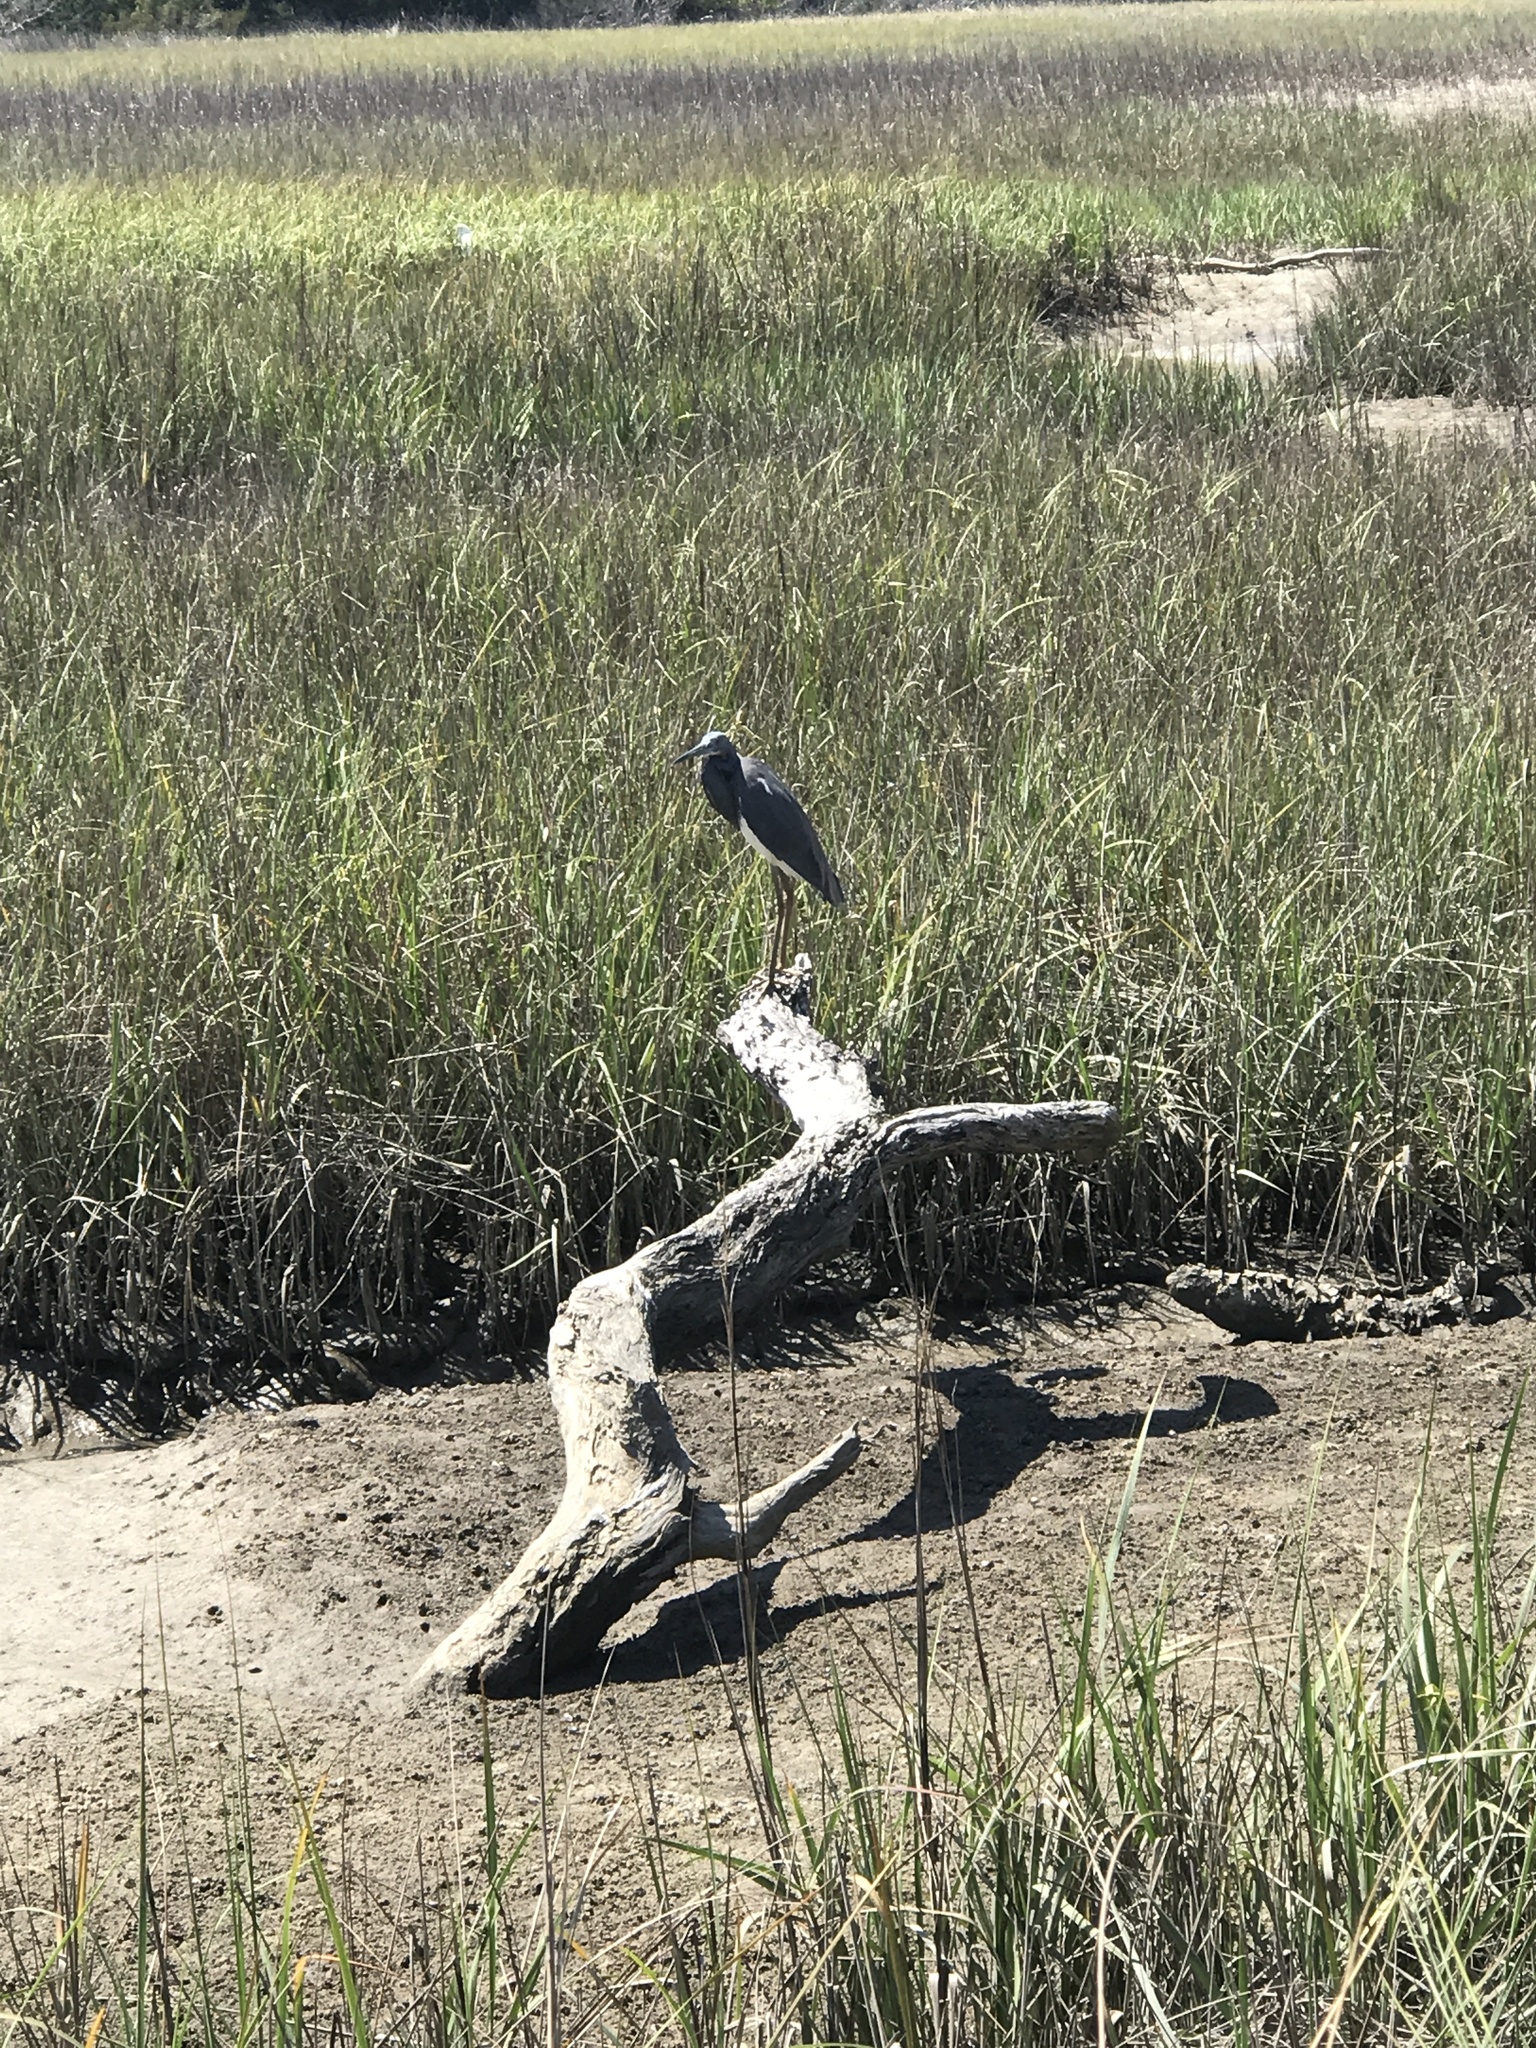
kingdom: Animalia
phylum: Chordata
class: Aves
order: Pelecaniformes
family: Ardeidae
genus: Egretta
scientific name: Egretta tricolor
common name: Tricolored heron
